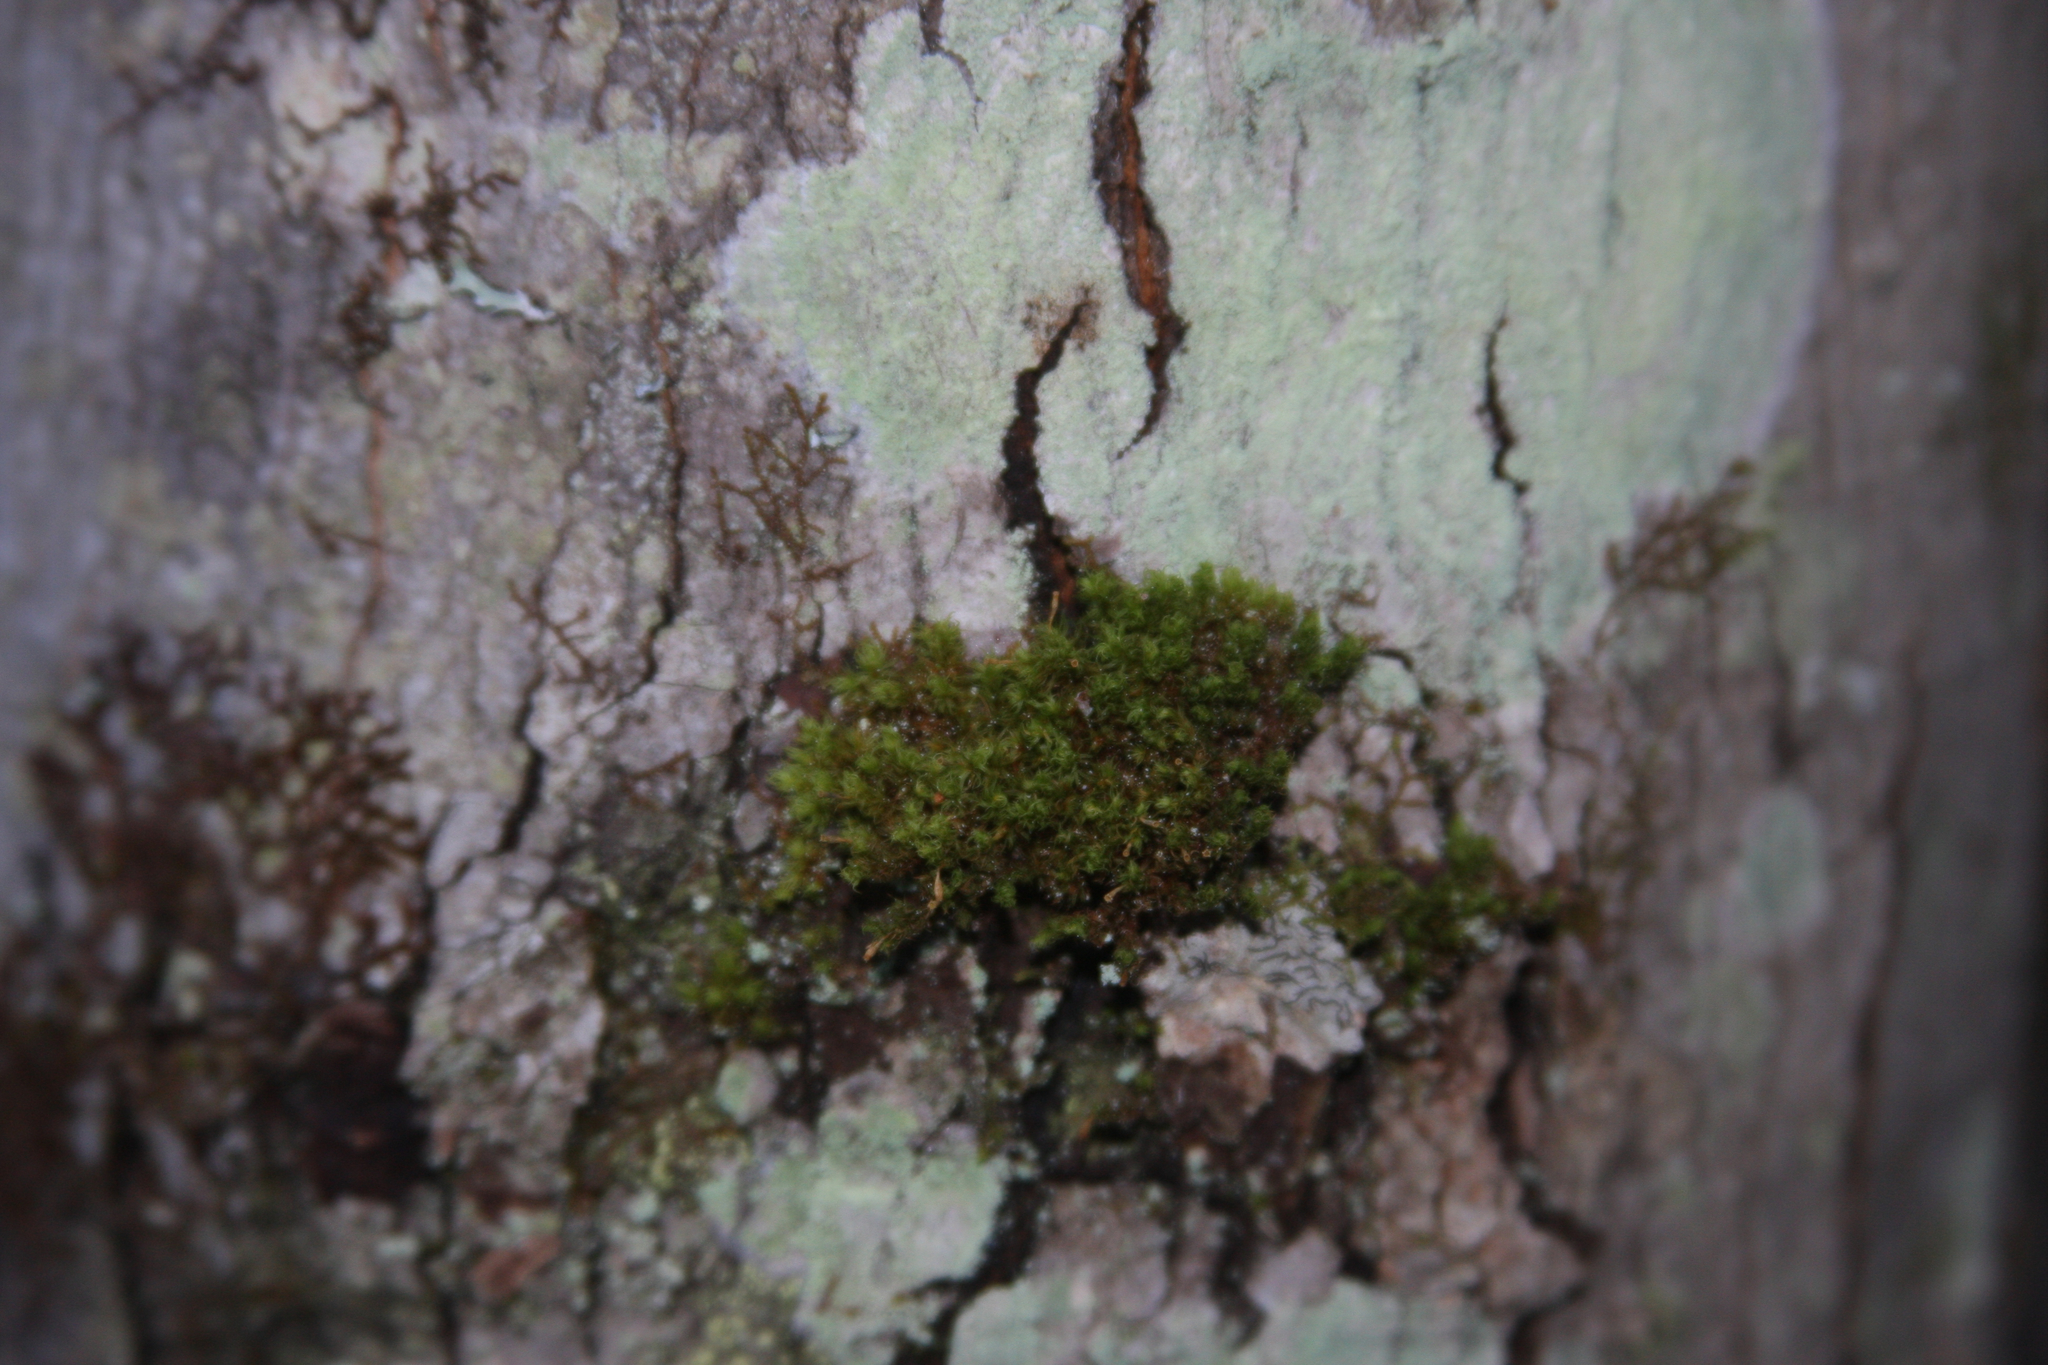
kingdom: Plantae
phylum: Bryophyta
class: Bryopsida
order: Orthotrichales
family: Orthotrichaceae
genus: Ulota
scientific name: Ulota crispa
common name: Crisped pincushion moss
